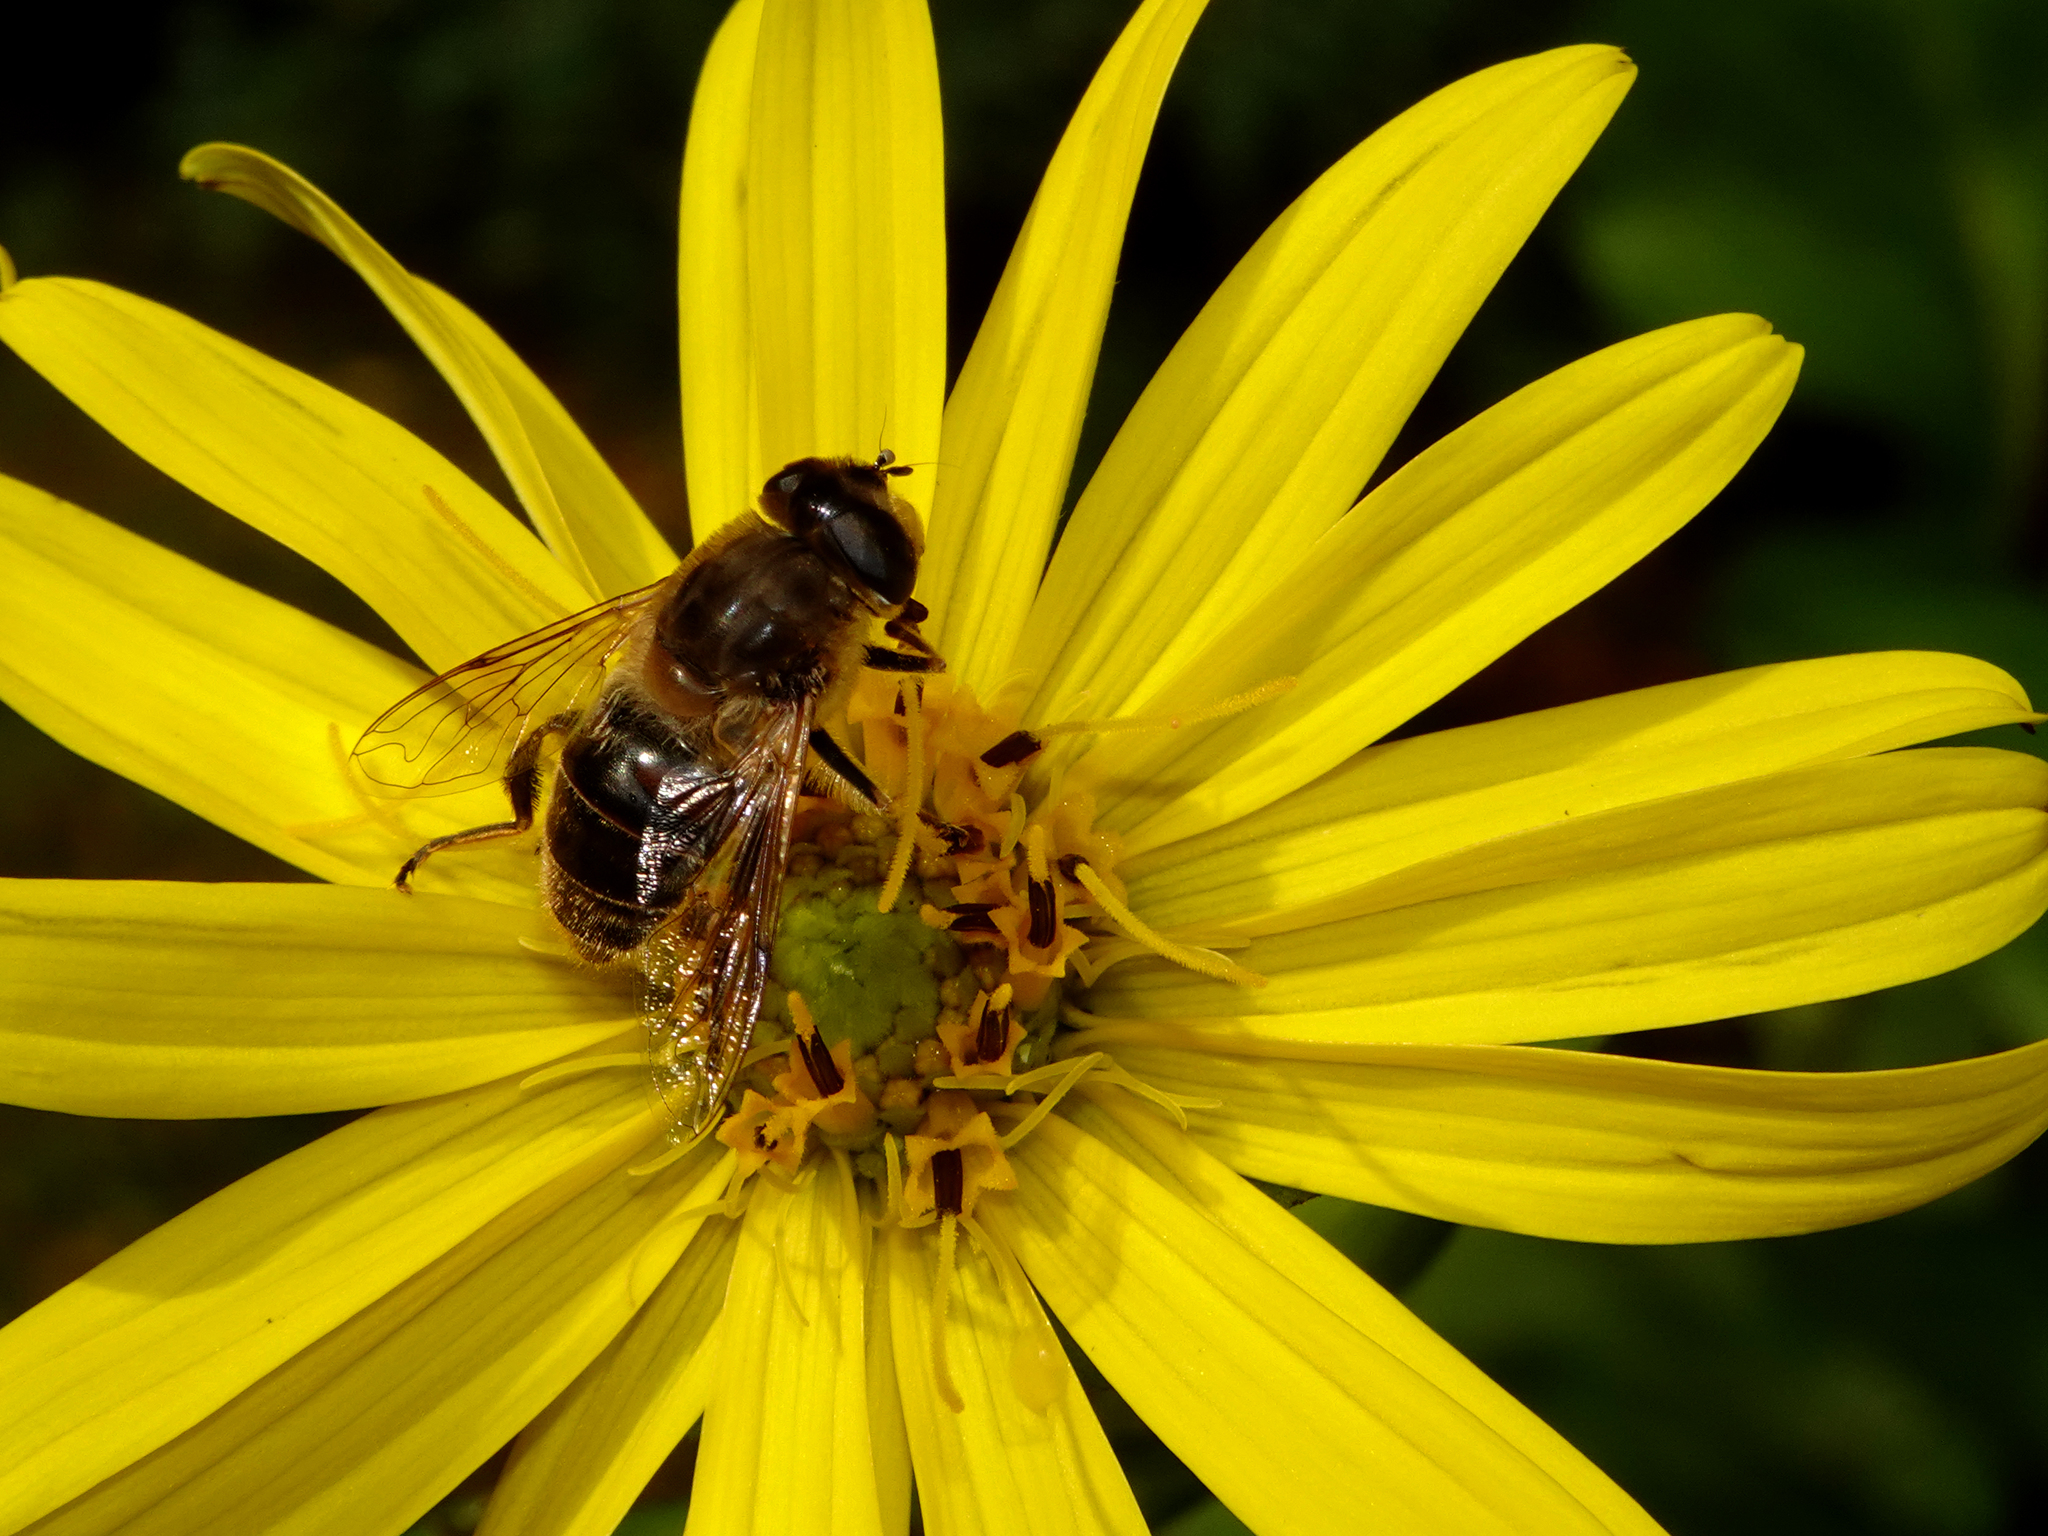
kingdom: Animalia
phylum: Arthropoda
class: Insecta
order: Diptera
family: Syrphidae
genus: Eristalis
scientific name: Eristalis tenax
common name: Drone fly
